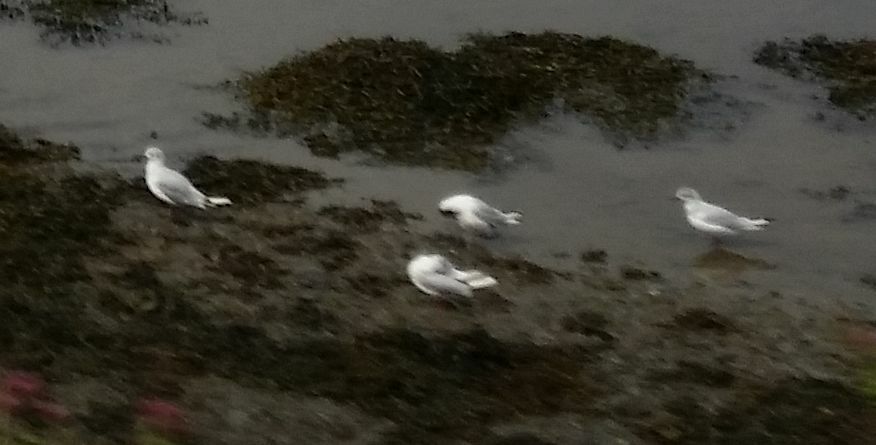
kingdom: Animalia
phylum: Chordata
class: Aves
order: Charadriiformes
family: Laridae
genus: Chroicocephalus
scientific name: Chroicocephalus ridibundus
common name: Black-headed gull
